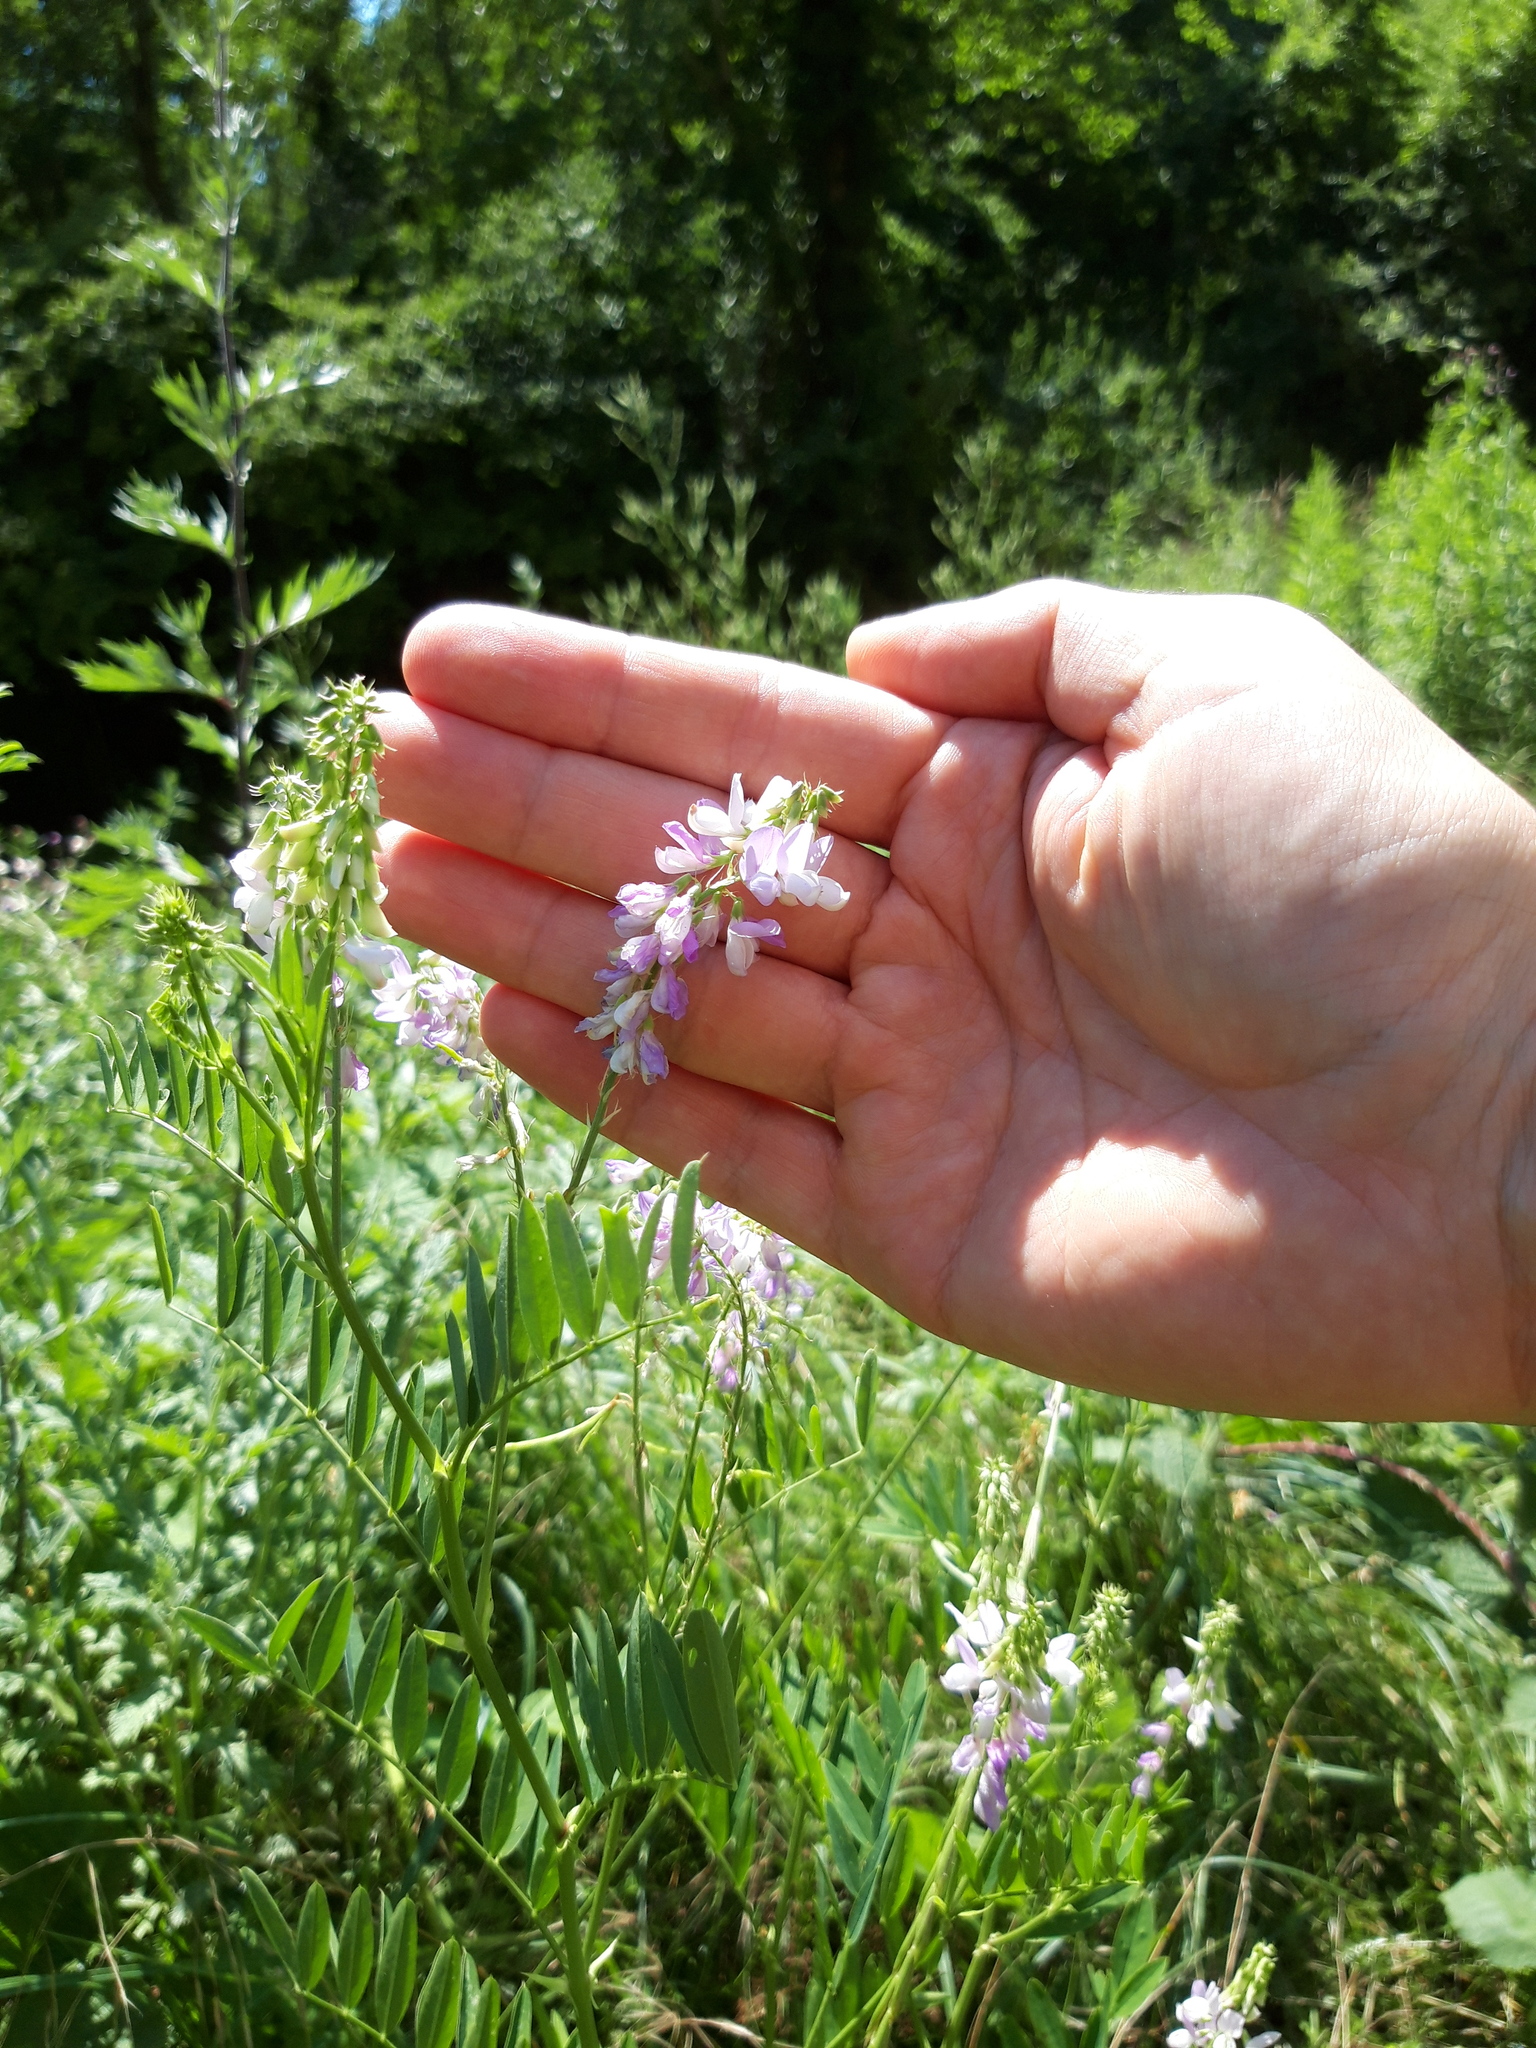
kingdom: Plantae
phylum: Tracheophyta
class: Magnoliopsida
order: Fabales
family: Fabaceae
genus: Galega
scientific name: Galega officinalis
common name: Goat's-rue
